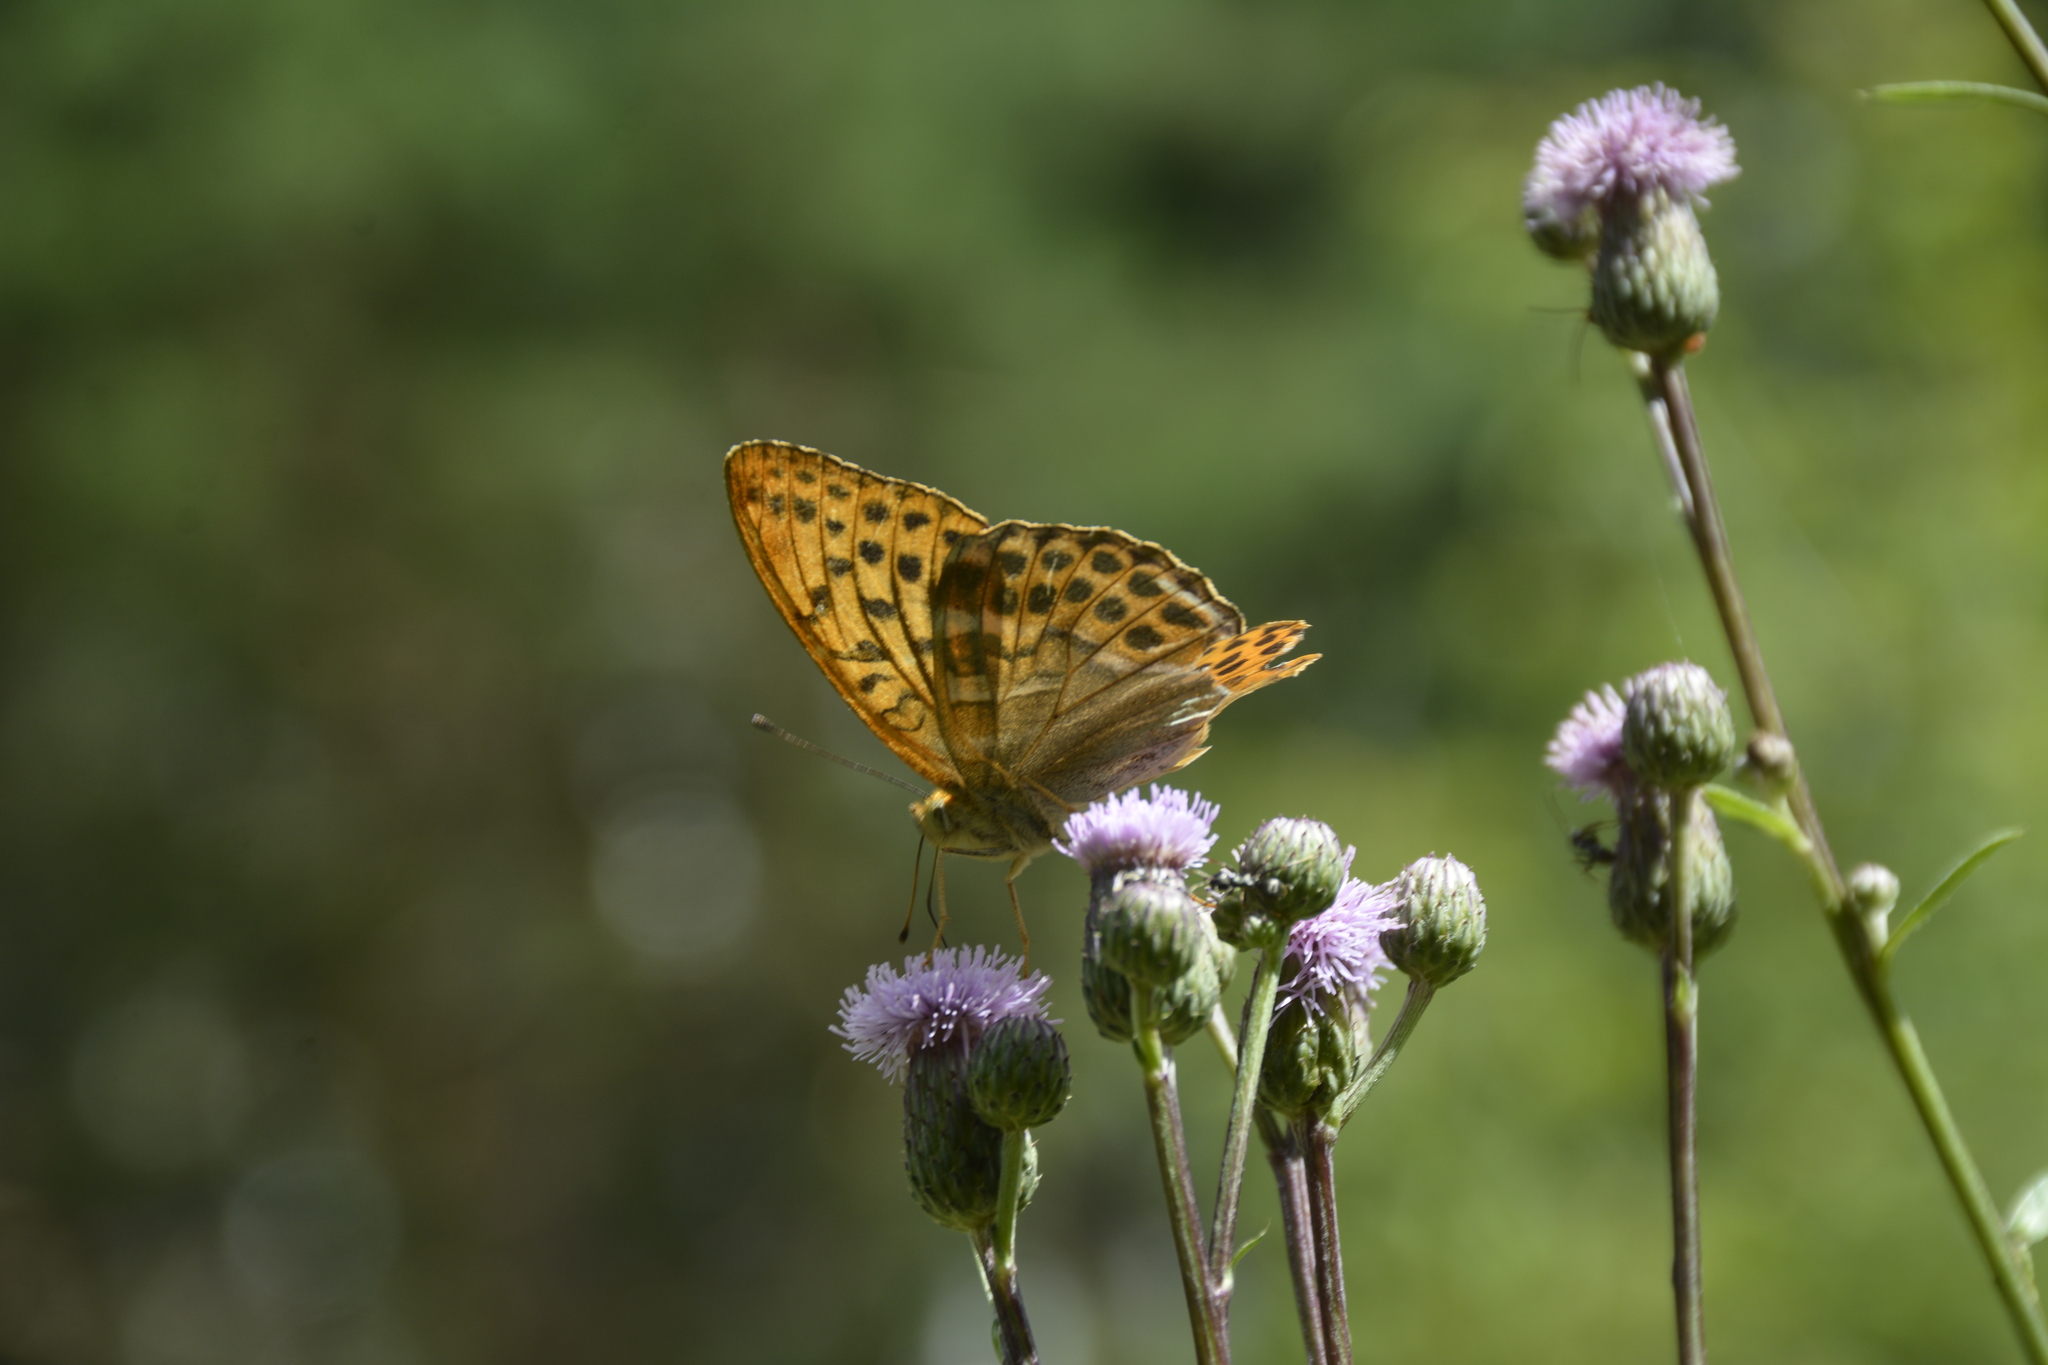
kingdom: Animalia
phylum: Arthropoda
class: Insecta
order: Lepidoptera
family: Nymphalidae
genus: Argynnis
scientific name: Argynnis paphia
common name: Silver-washed fritillary
